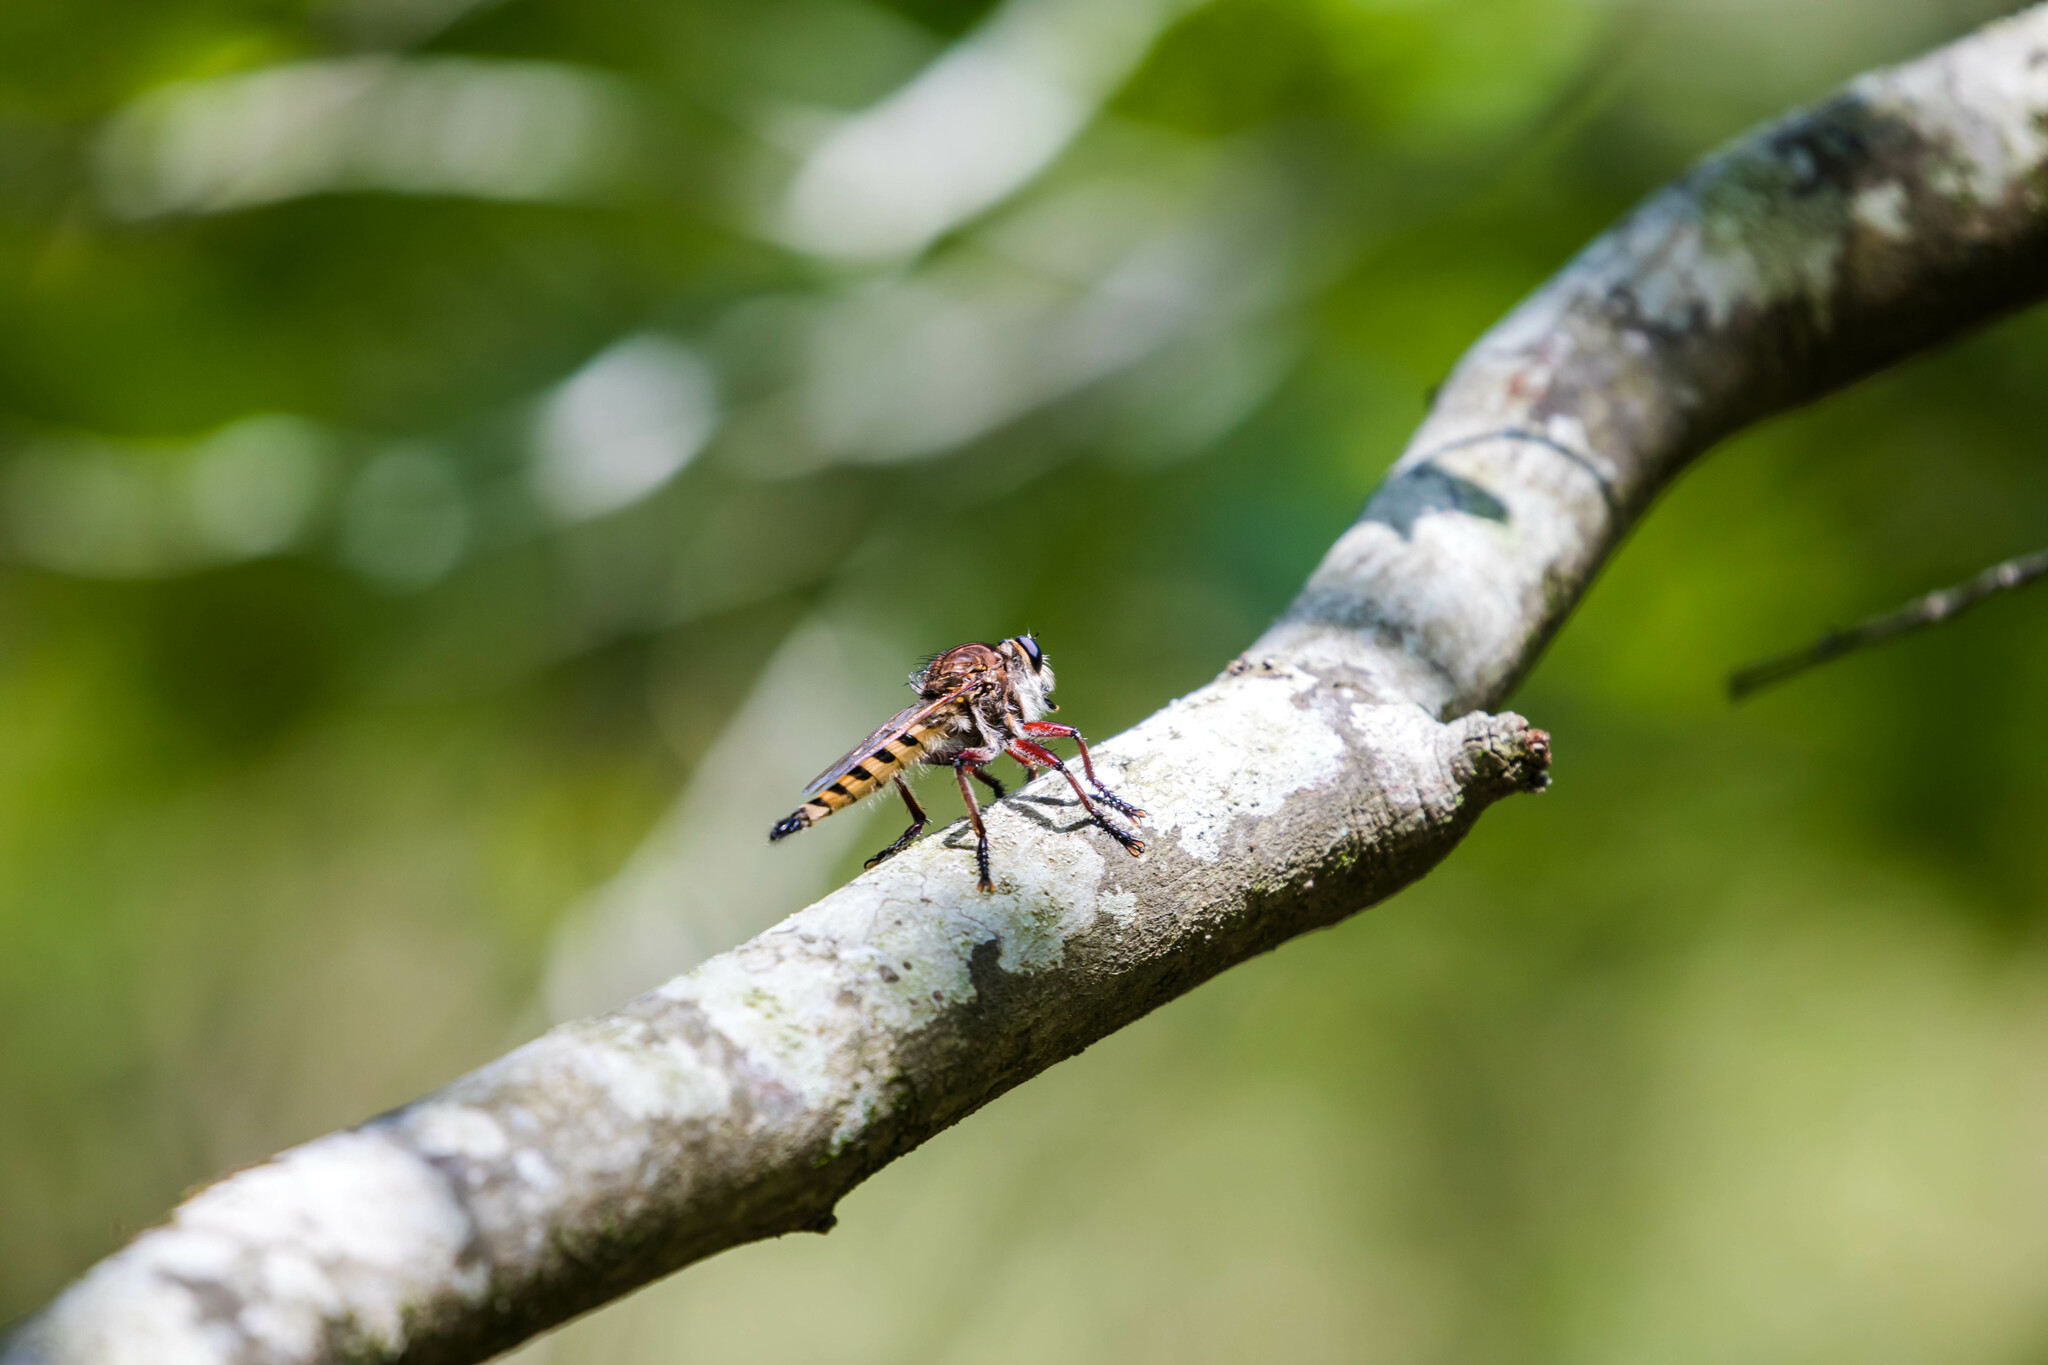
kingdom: Animalia
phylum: Arthropoda
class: Insecta
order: Diptera
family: Asilidae
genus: Promachus
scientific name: Promachus hinei
